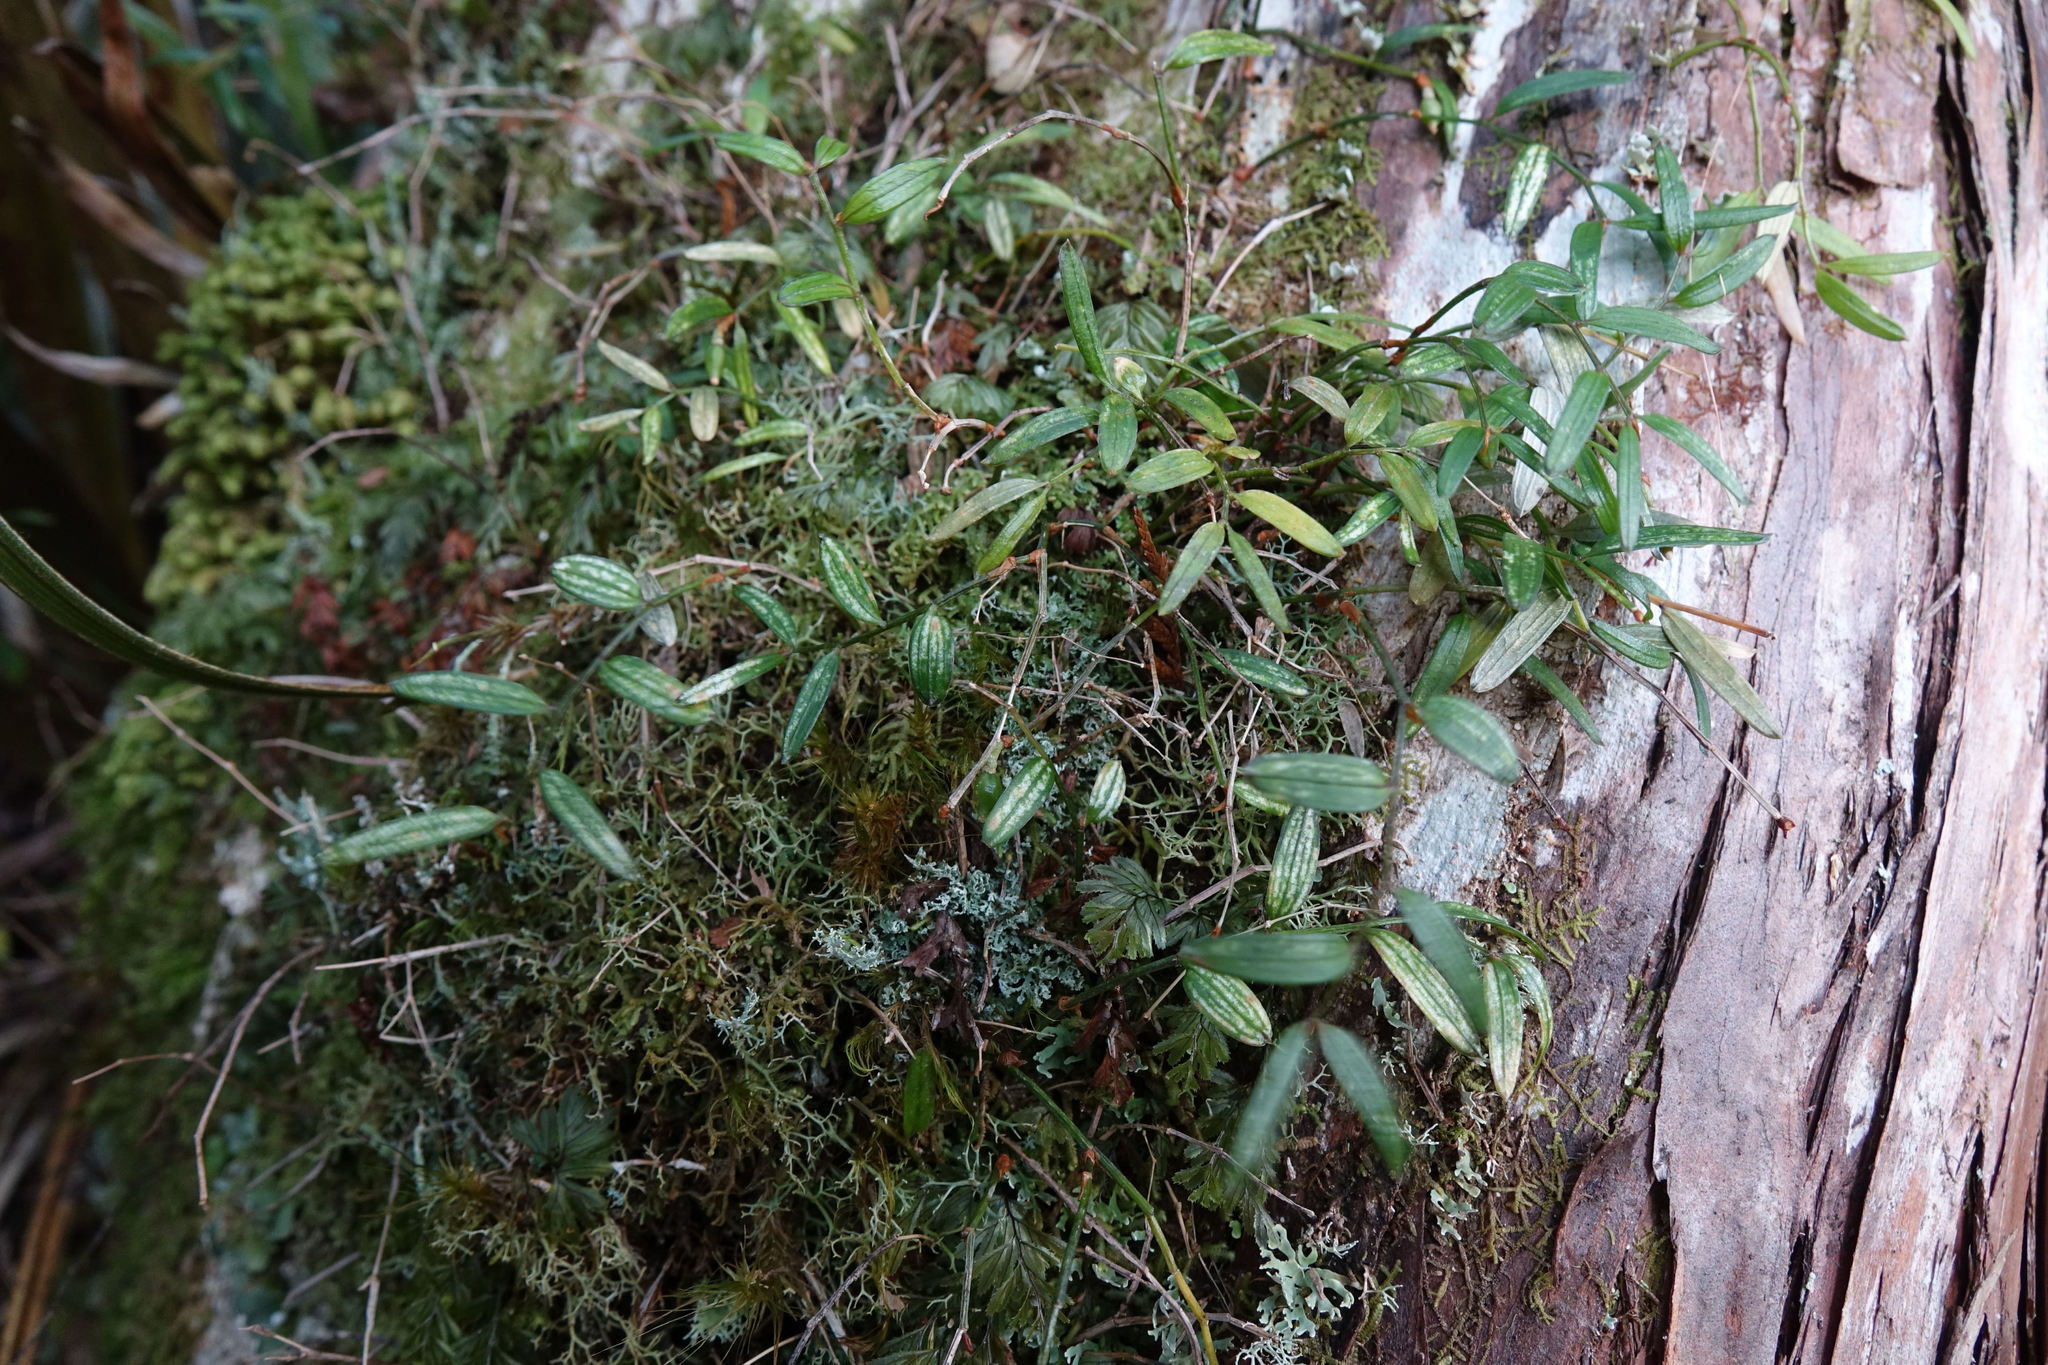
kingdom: Plantae
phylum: Tracheophyta
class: Liliopsida
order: Liliales
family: Alstroemeriaceae
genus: Luzuriaga
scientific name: Luzuriaga parviflora
